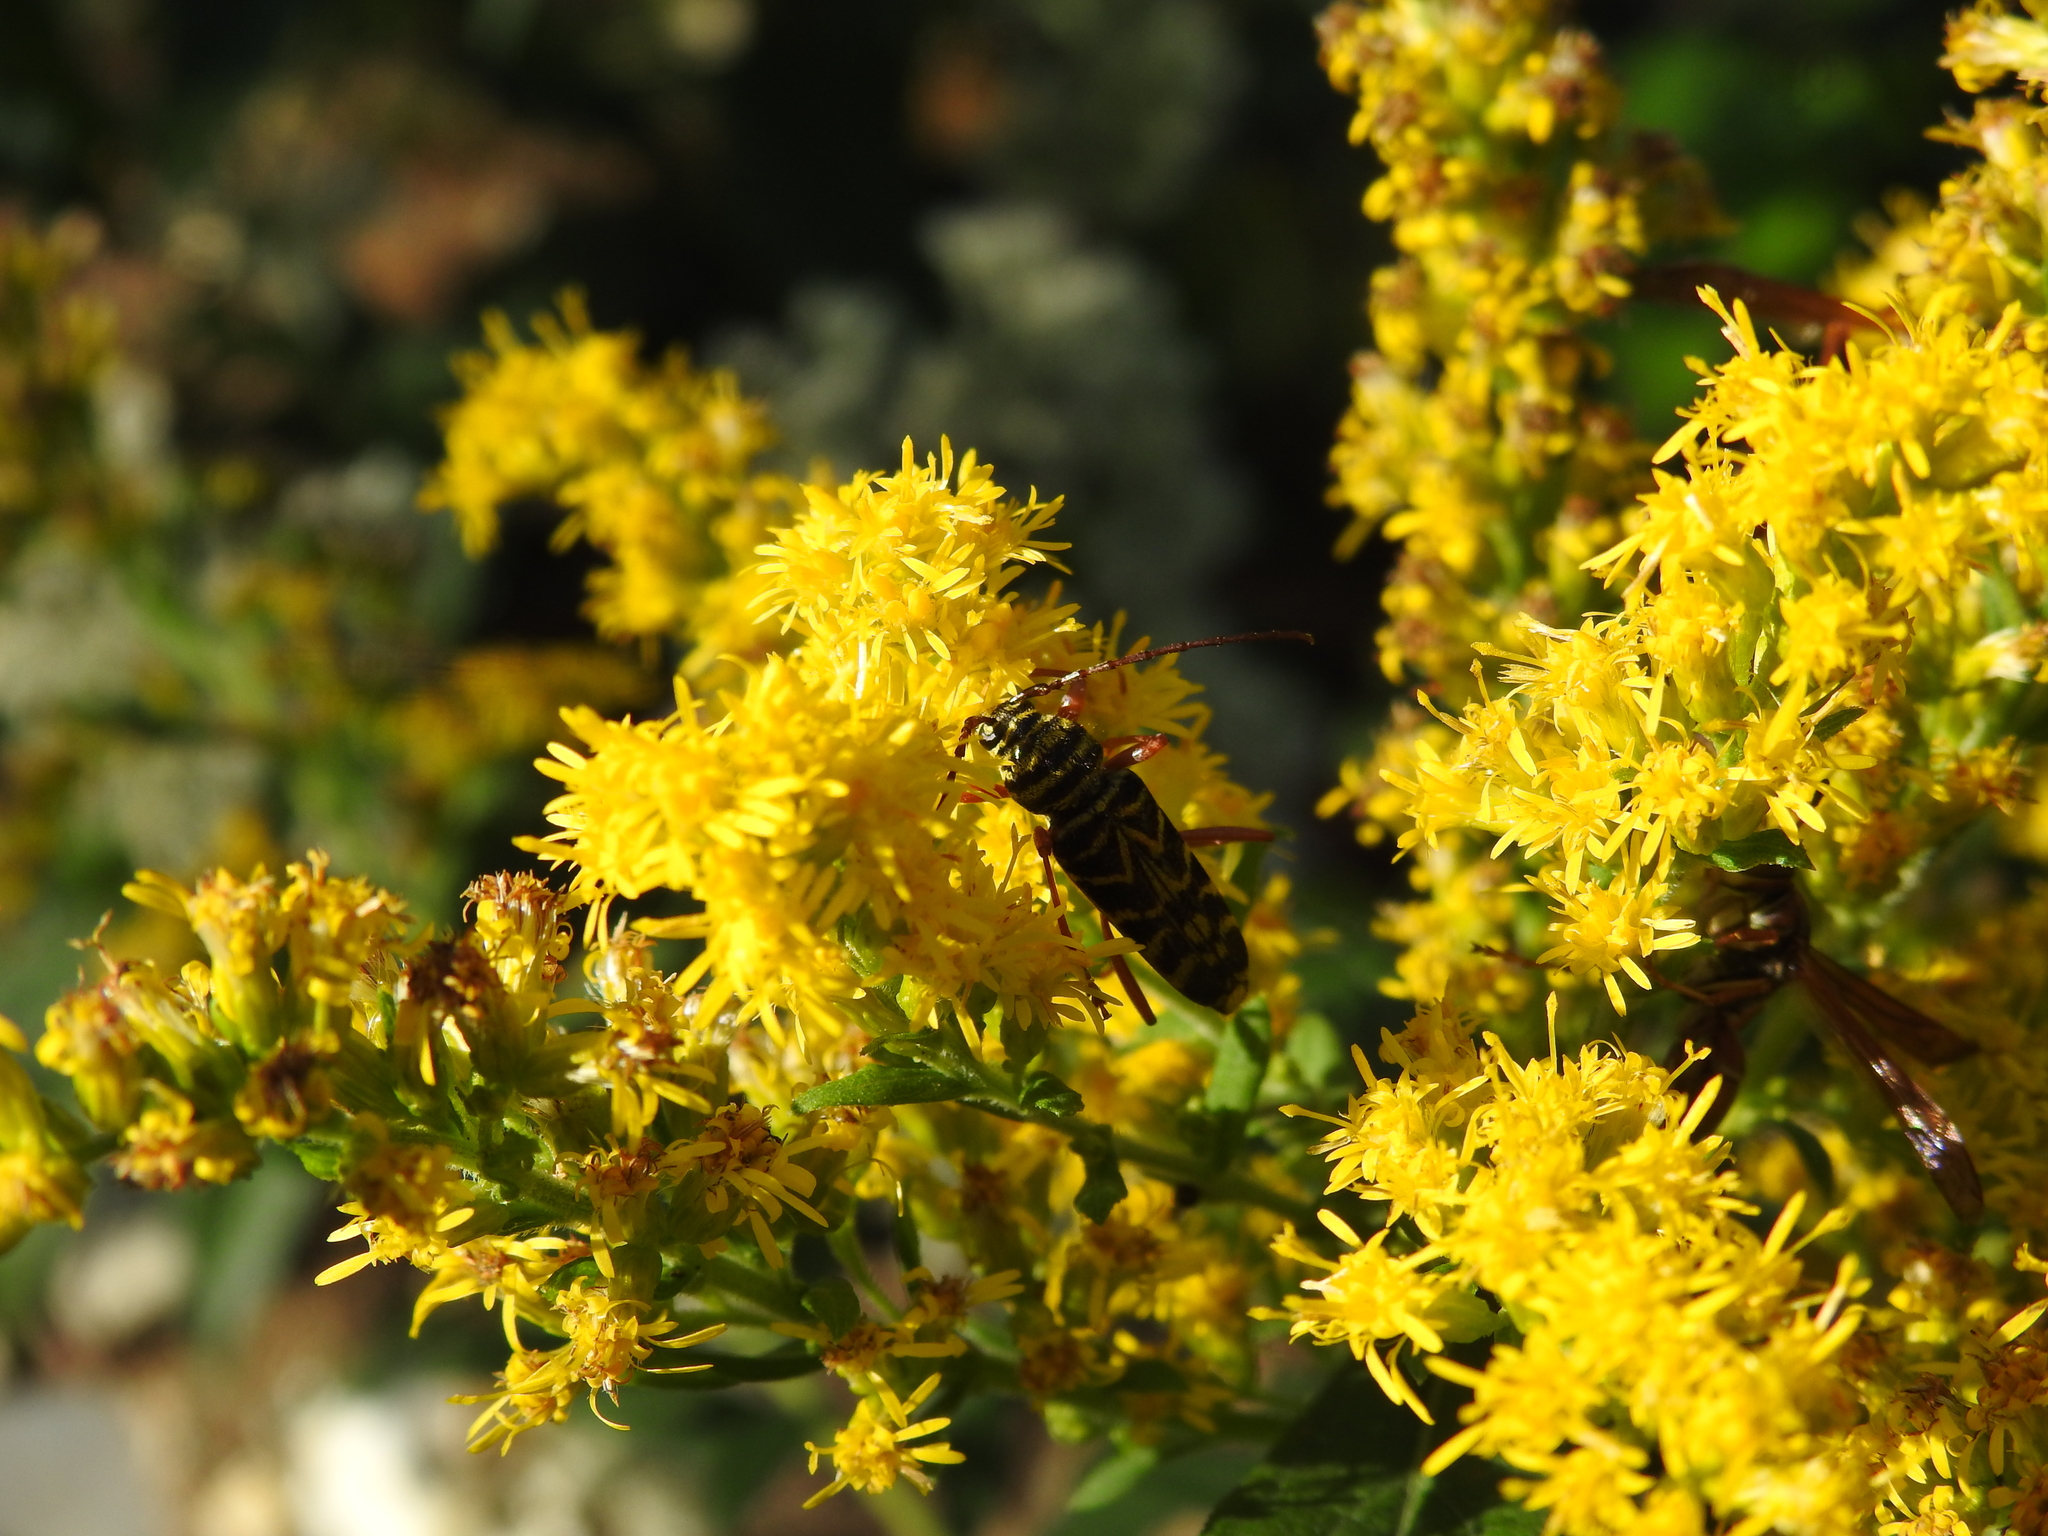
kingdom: Animalia
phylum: Arthropoda
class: Insecta
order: Coleoptera
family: Cerambycidae
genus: Megacyllene
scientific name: Megacyllene robiniae
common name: Locust borer
